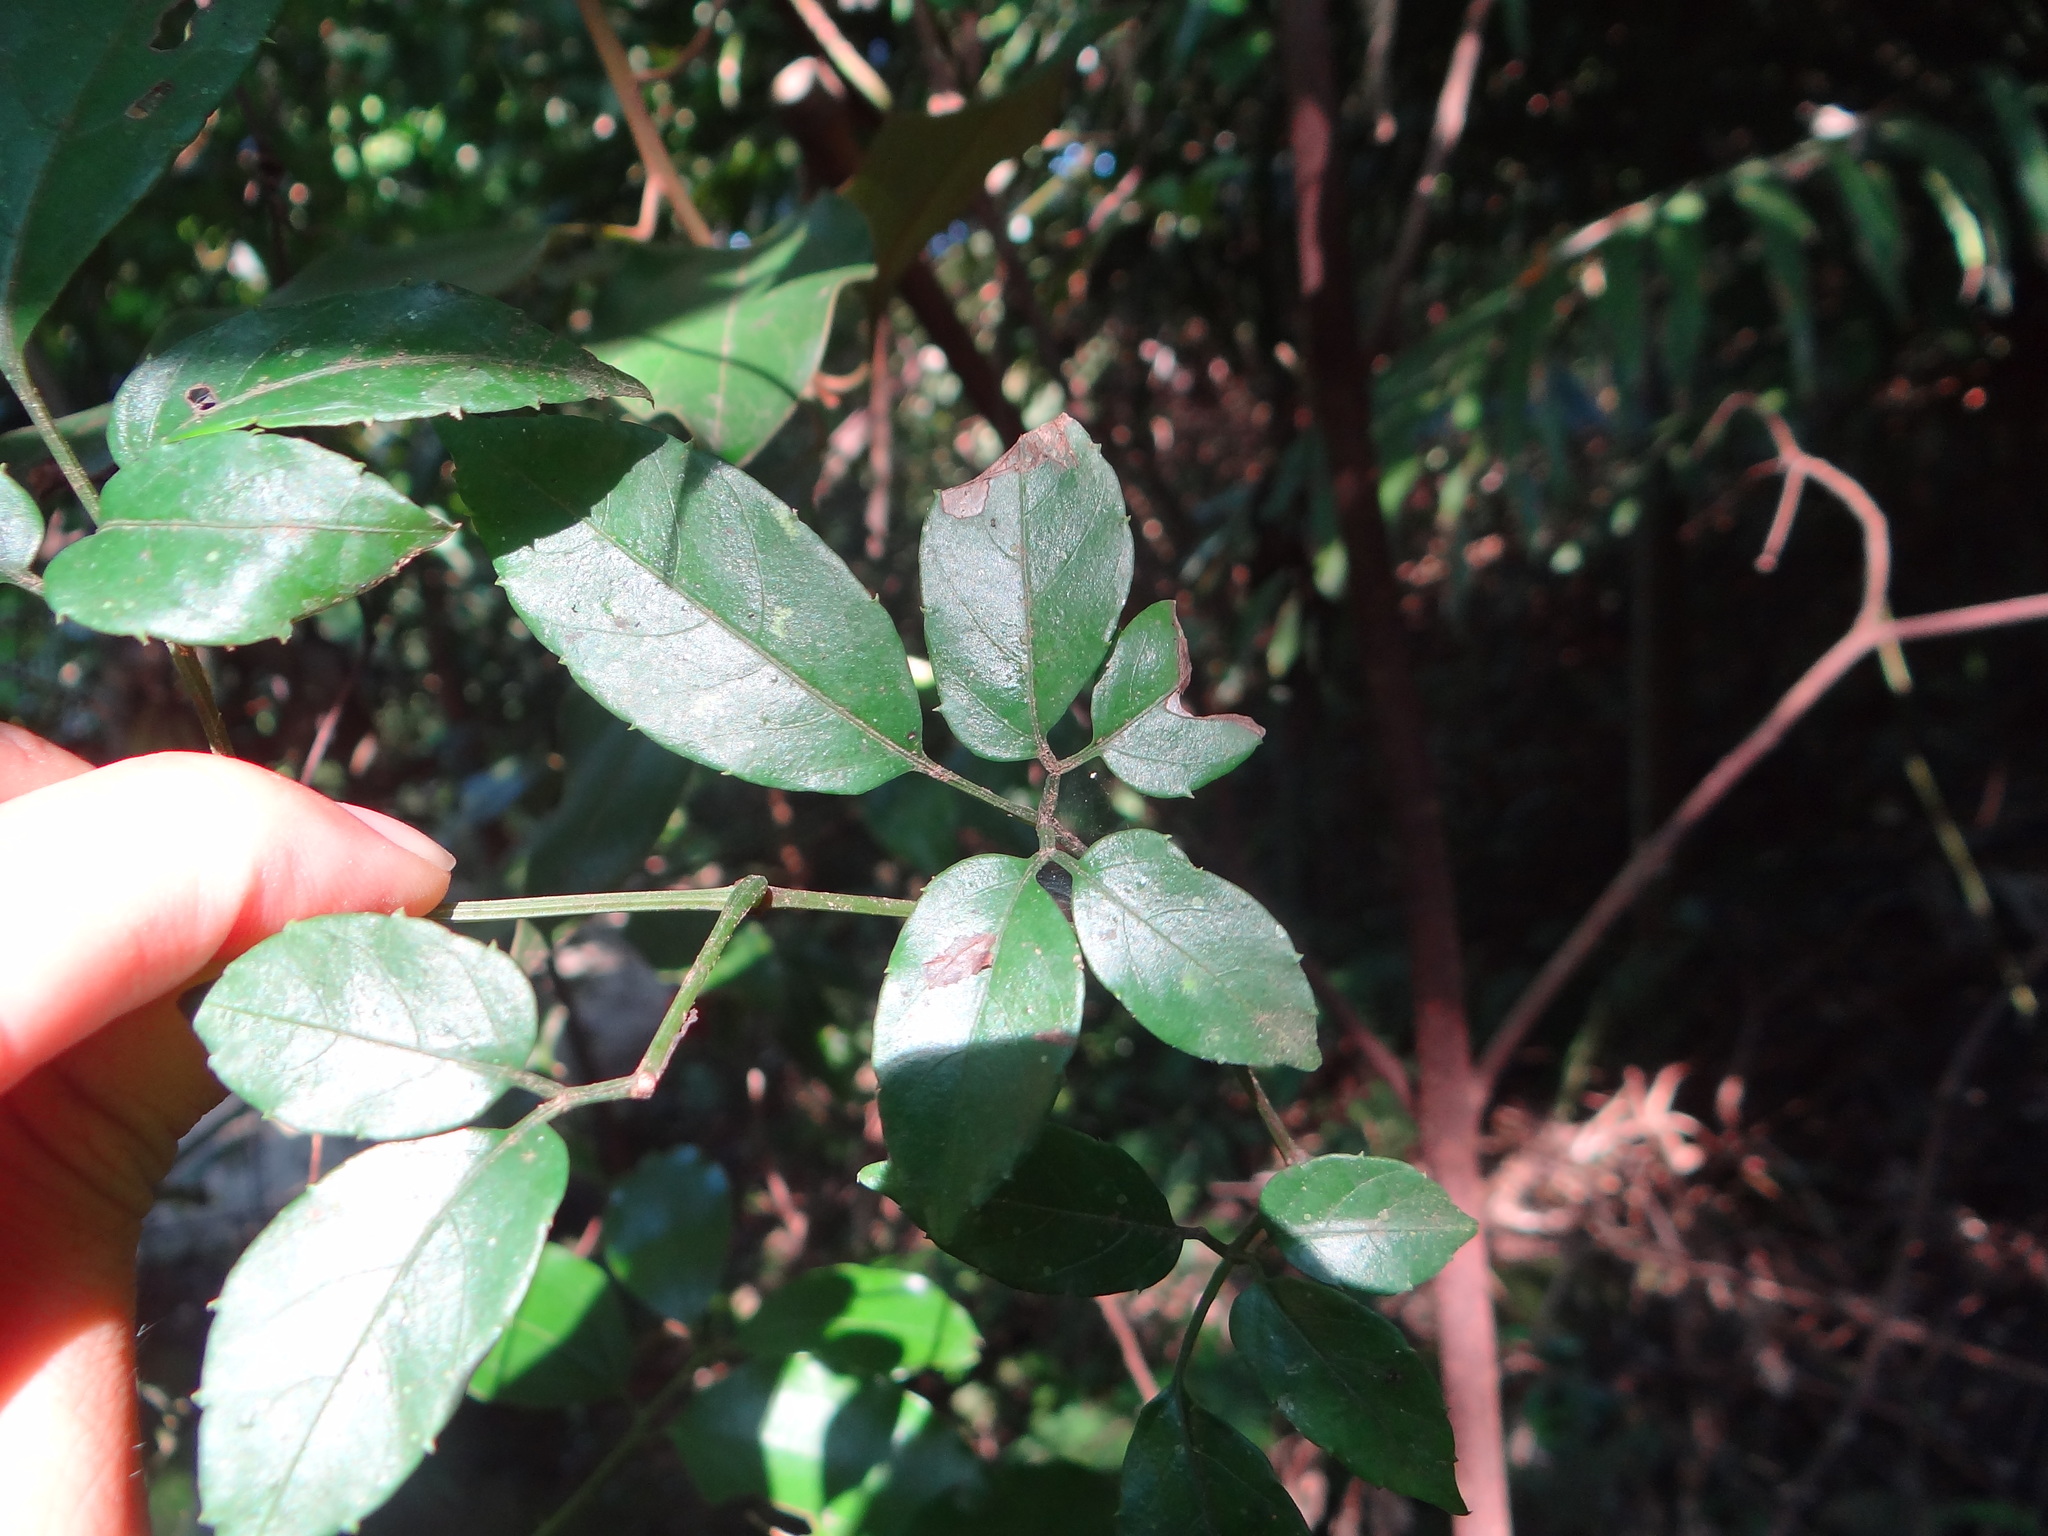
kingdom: Plantae
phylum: Tracheophyta
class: Magnoliopsida
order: Vitales
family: Vitaceae
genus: Causonis
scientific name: Causonis corniculata
